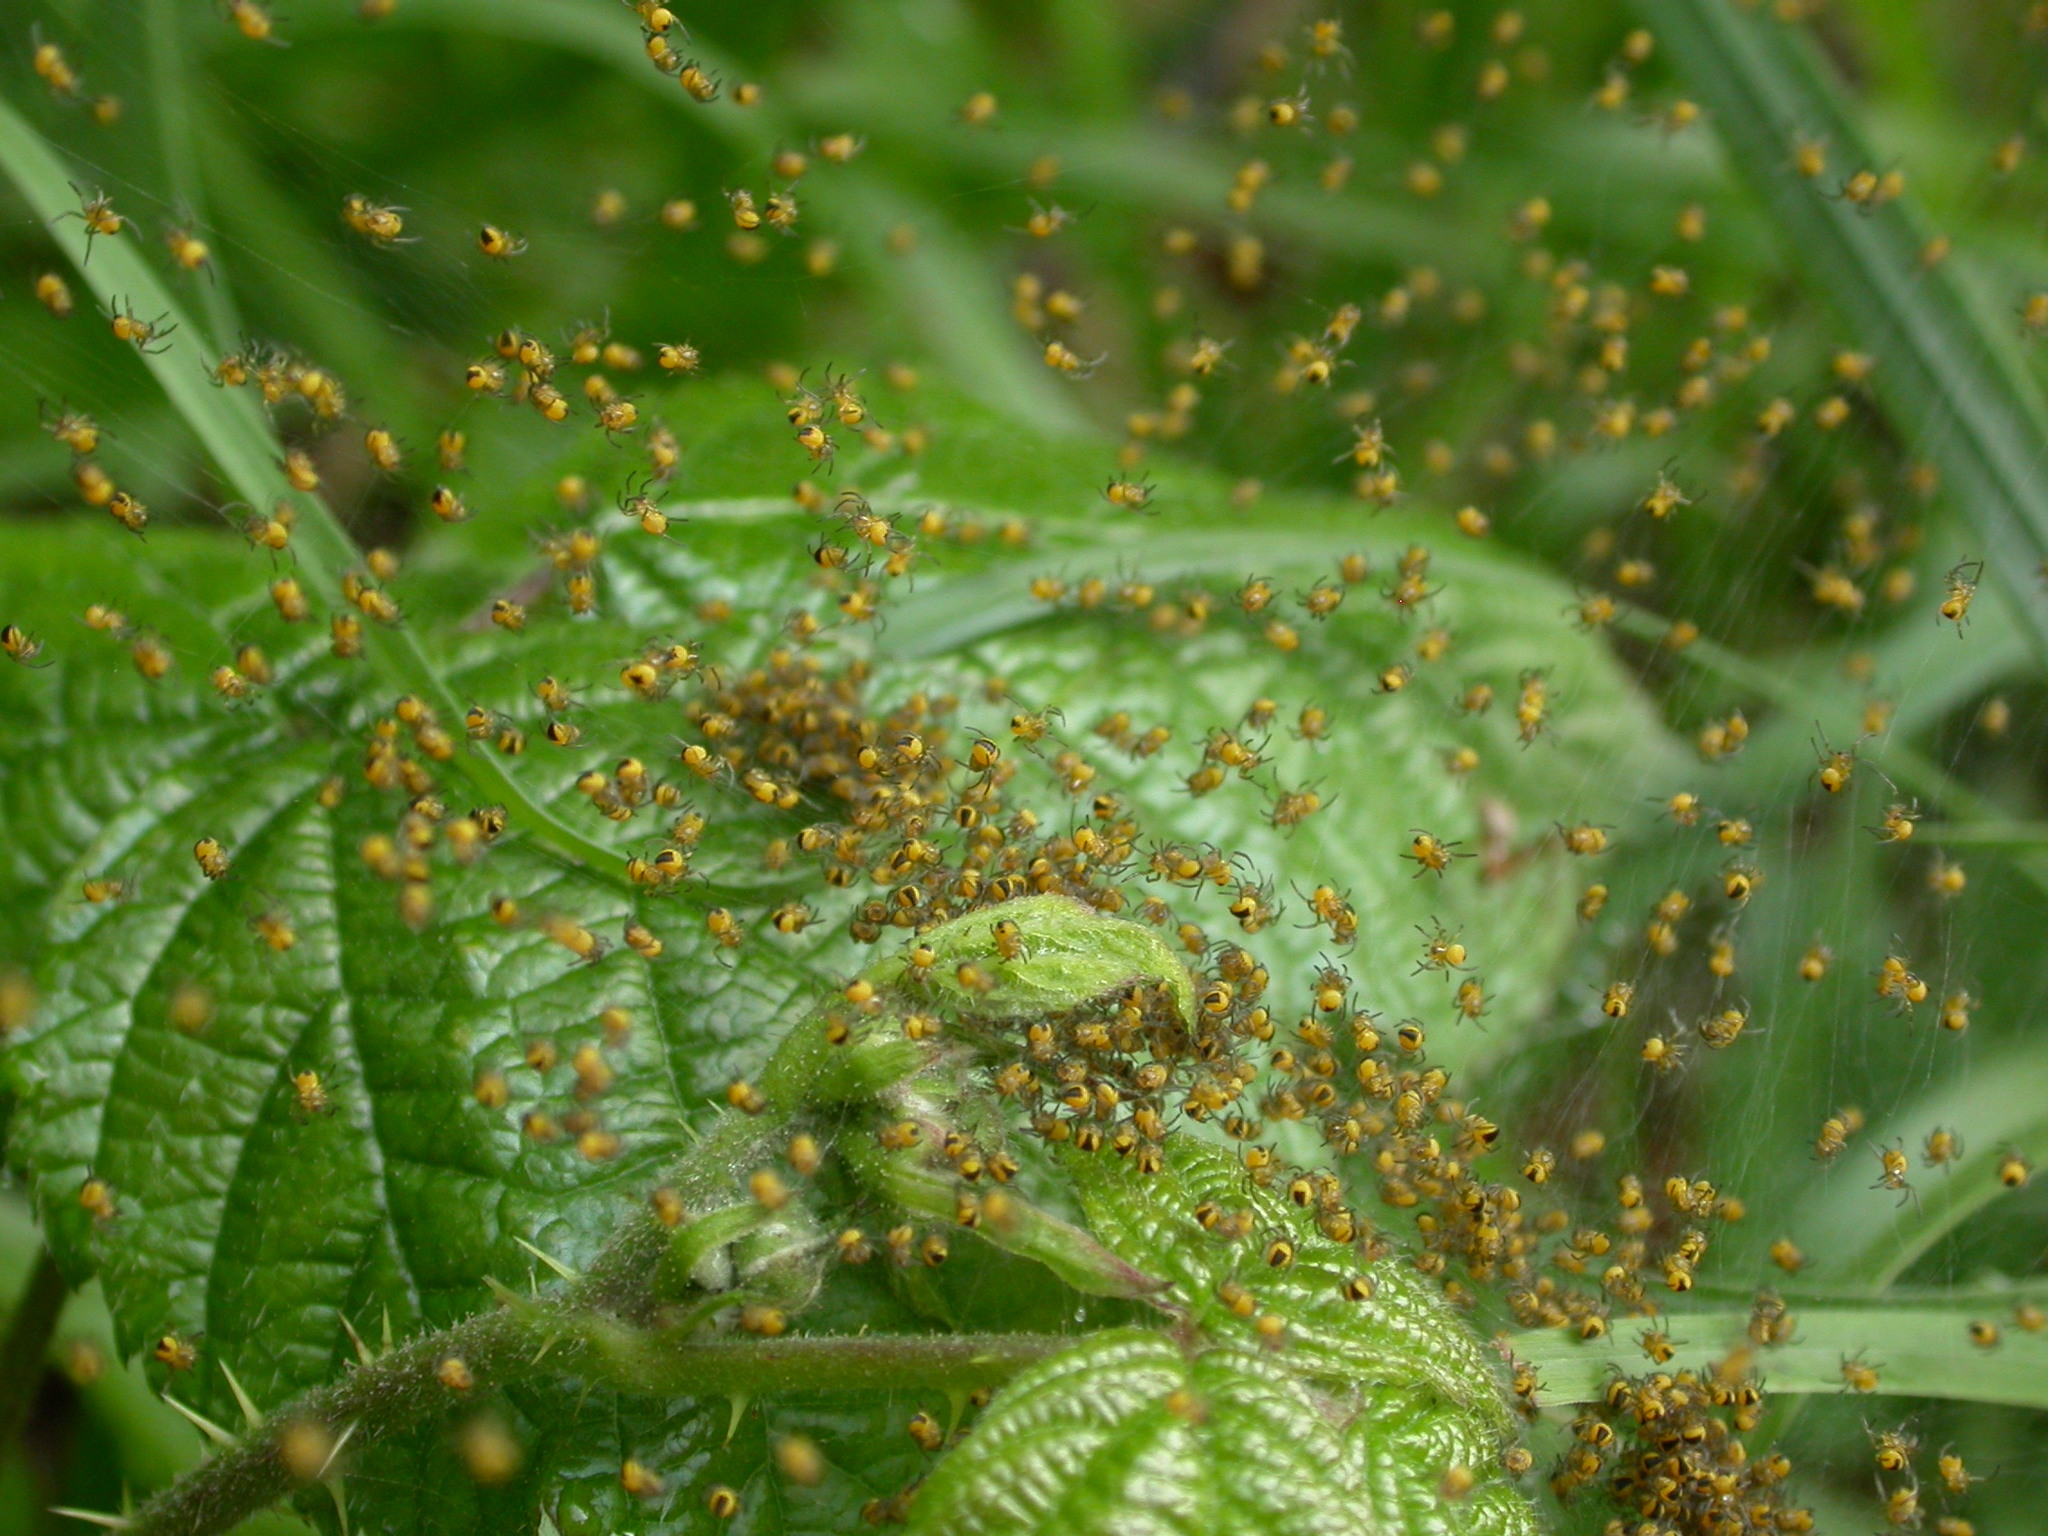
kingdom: Animalia
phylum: Arthropoda
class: Arachnida
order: Araneae
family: Araneidae
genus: Araneus
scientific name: Araneus diadematus
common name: Cross orbweaver
